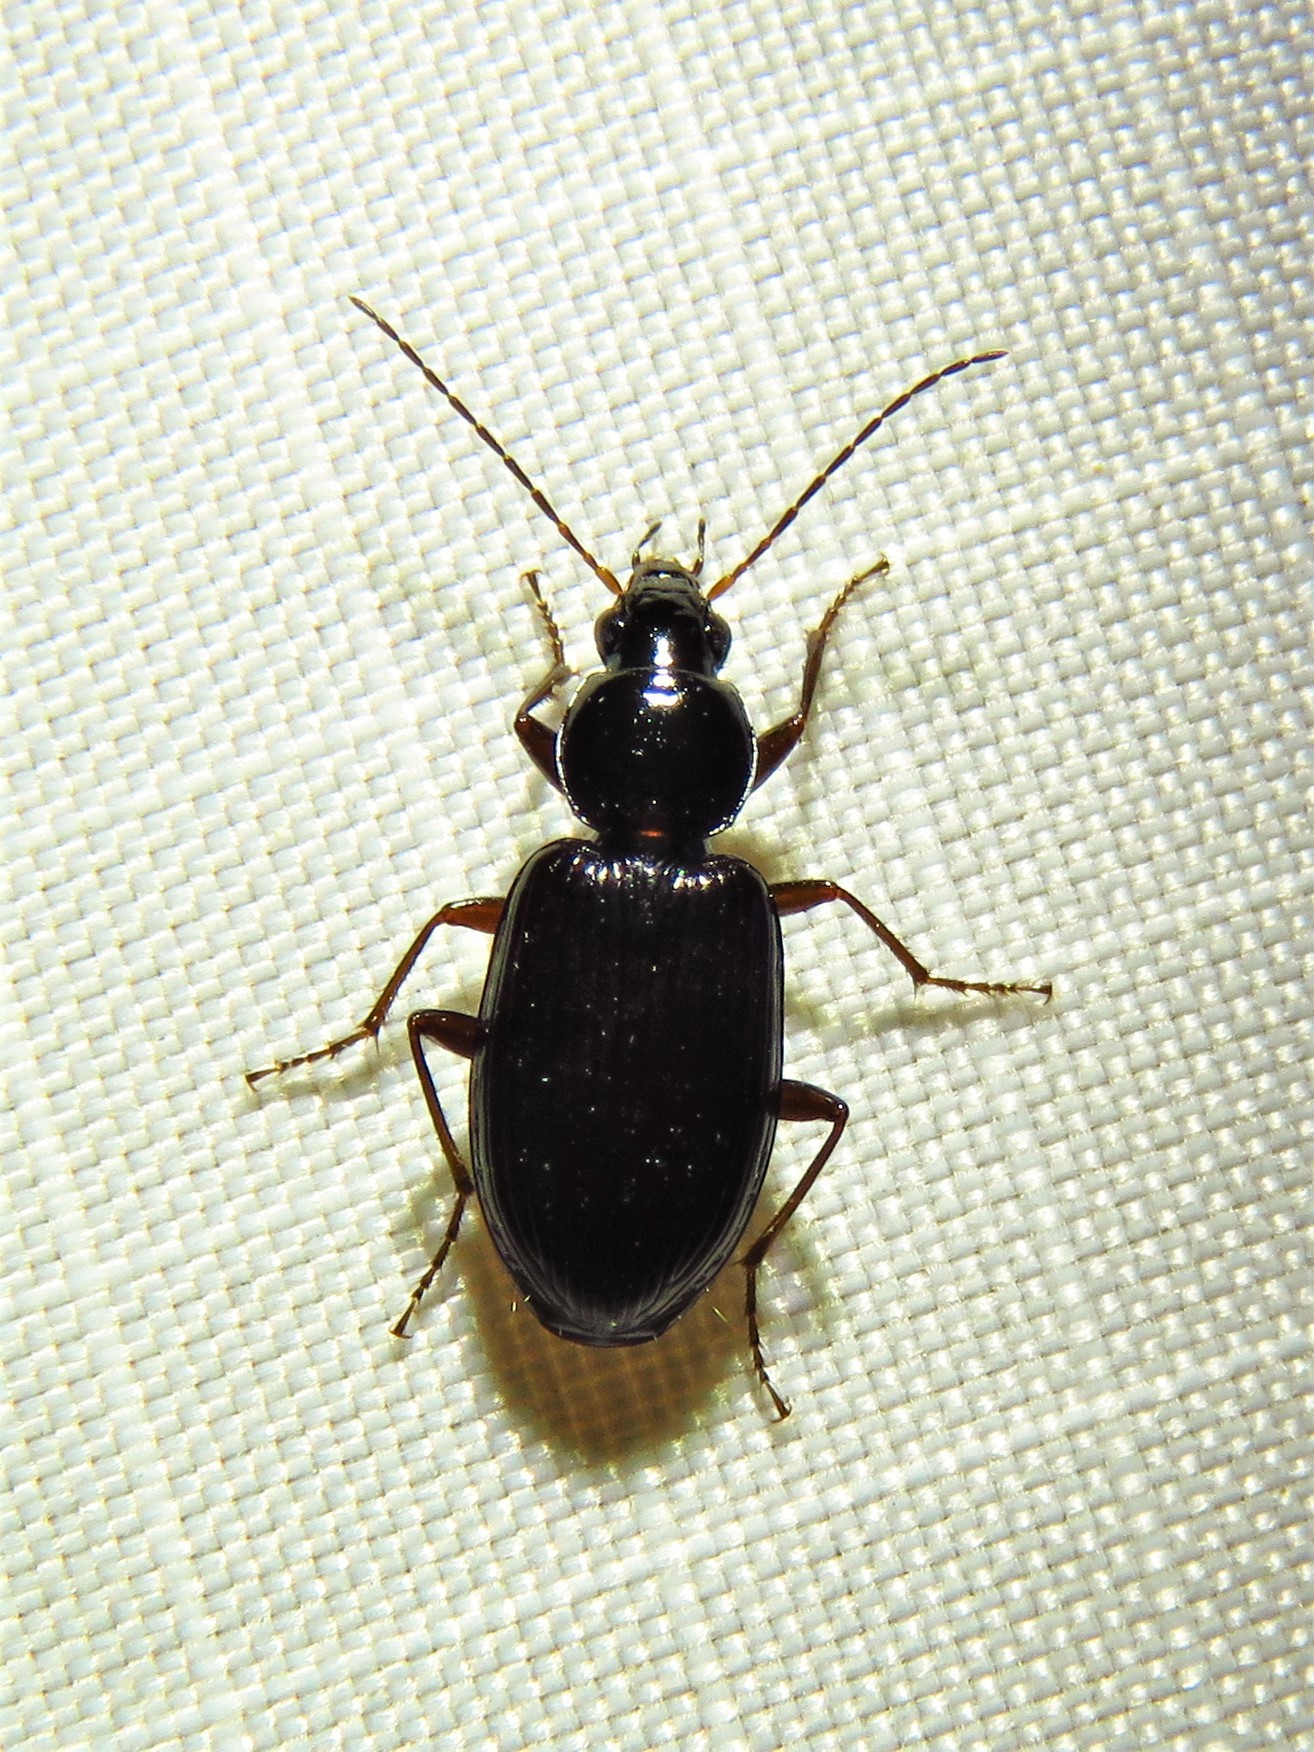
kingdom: Animalia
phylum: Arthropoda
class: Insecta
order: Coleoptera
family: Carabidae
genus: Agonum
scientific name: Agonum punctiforme
